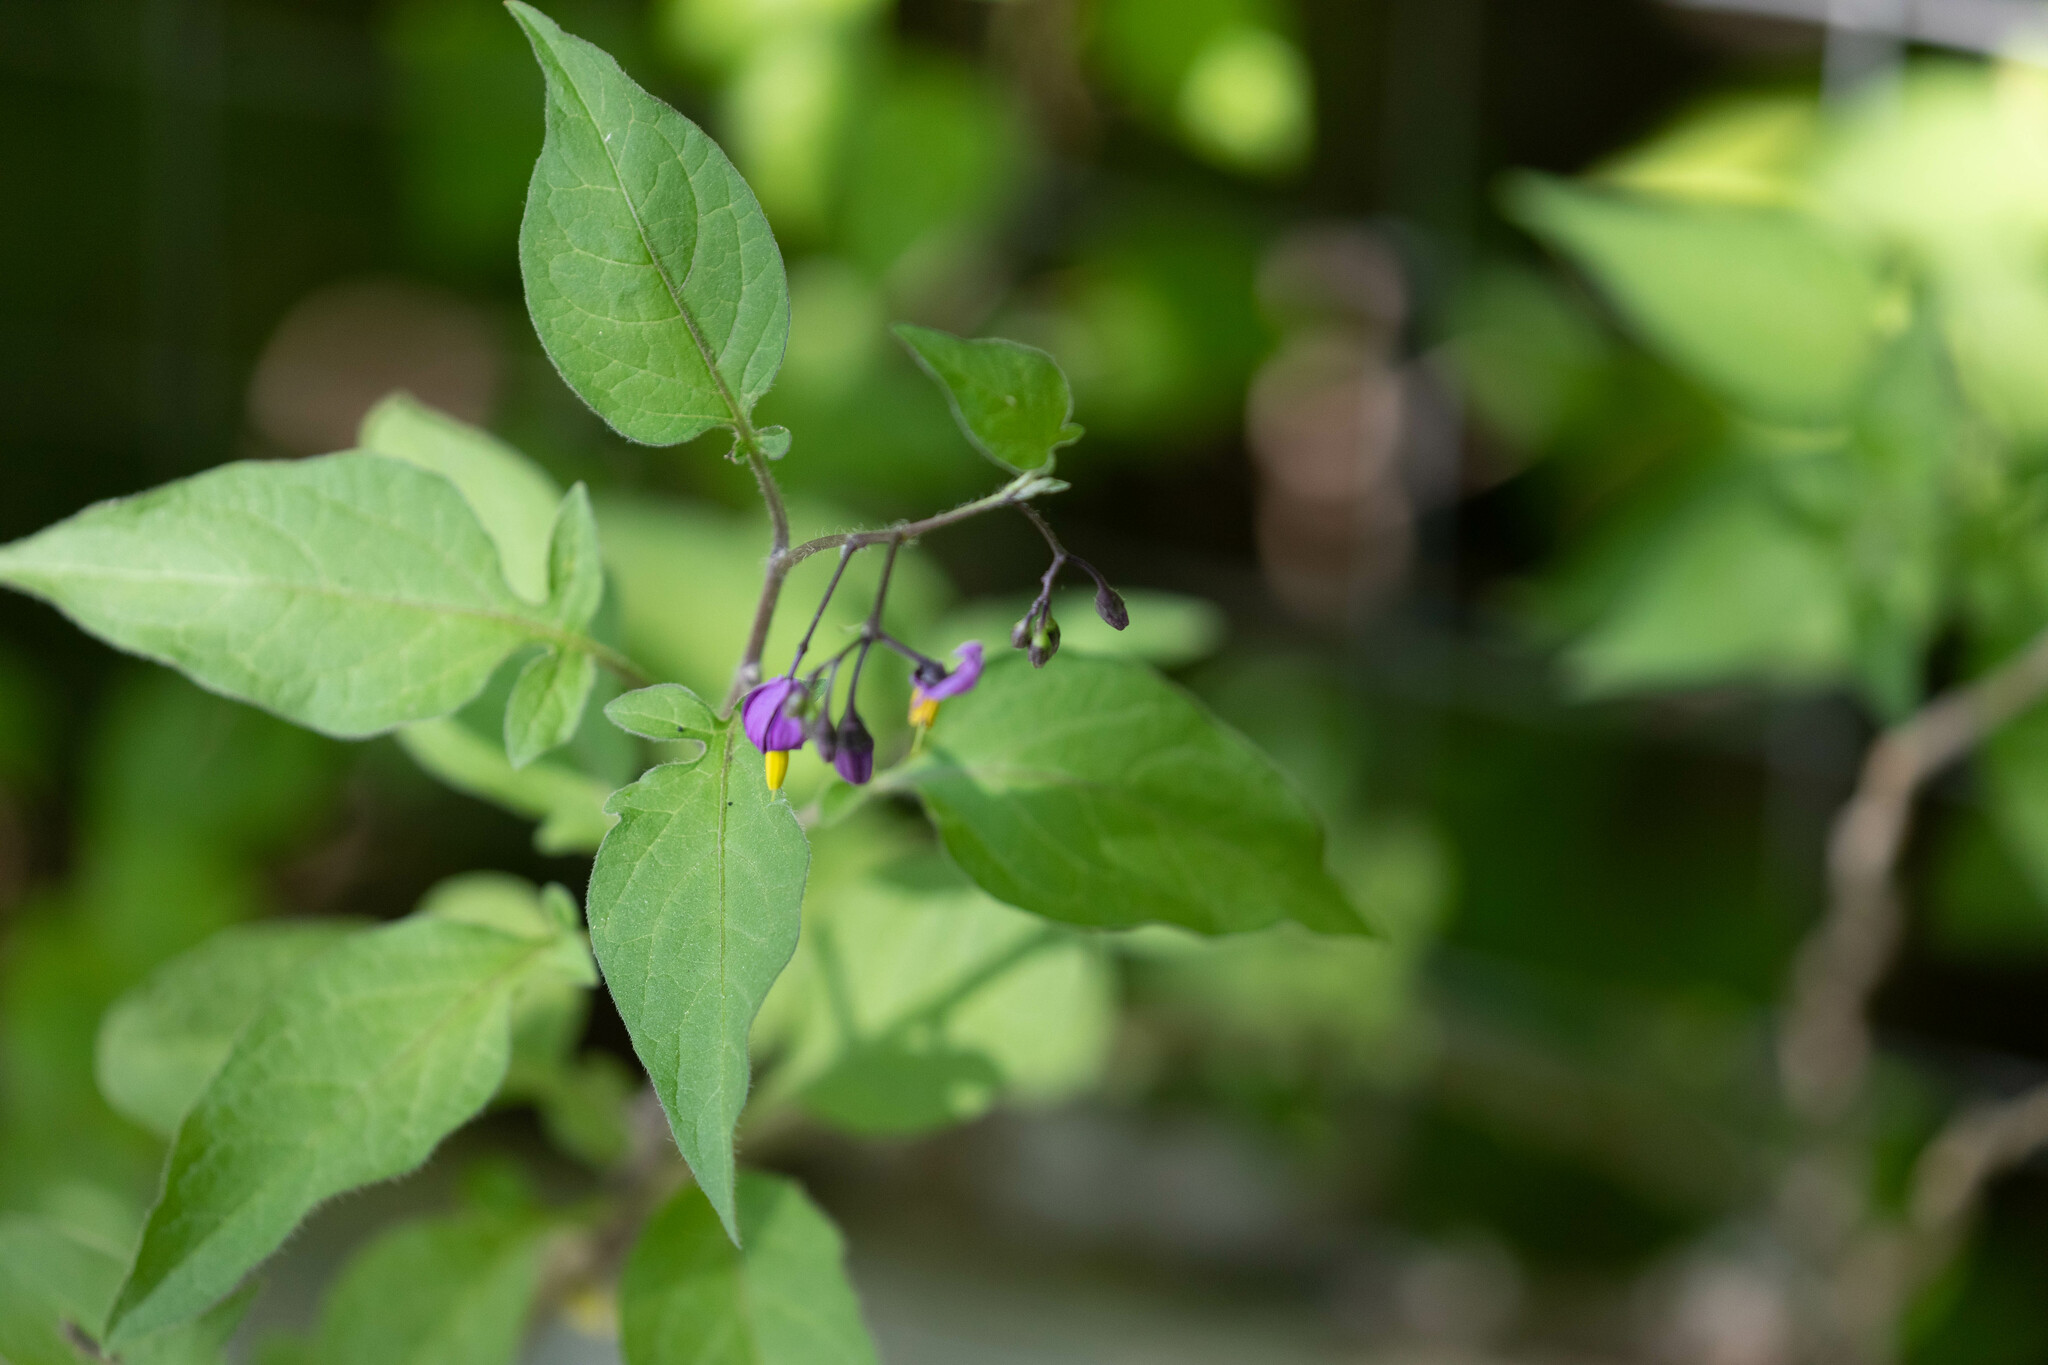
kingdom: Plantae
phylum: Tracheophyta
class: Magnoliopsida
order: Solanales
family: Solanaceae
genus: Solanum
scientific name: Solanum dulcamara
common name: Climbing nightshade
